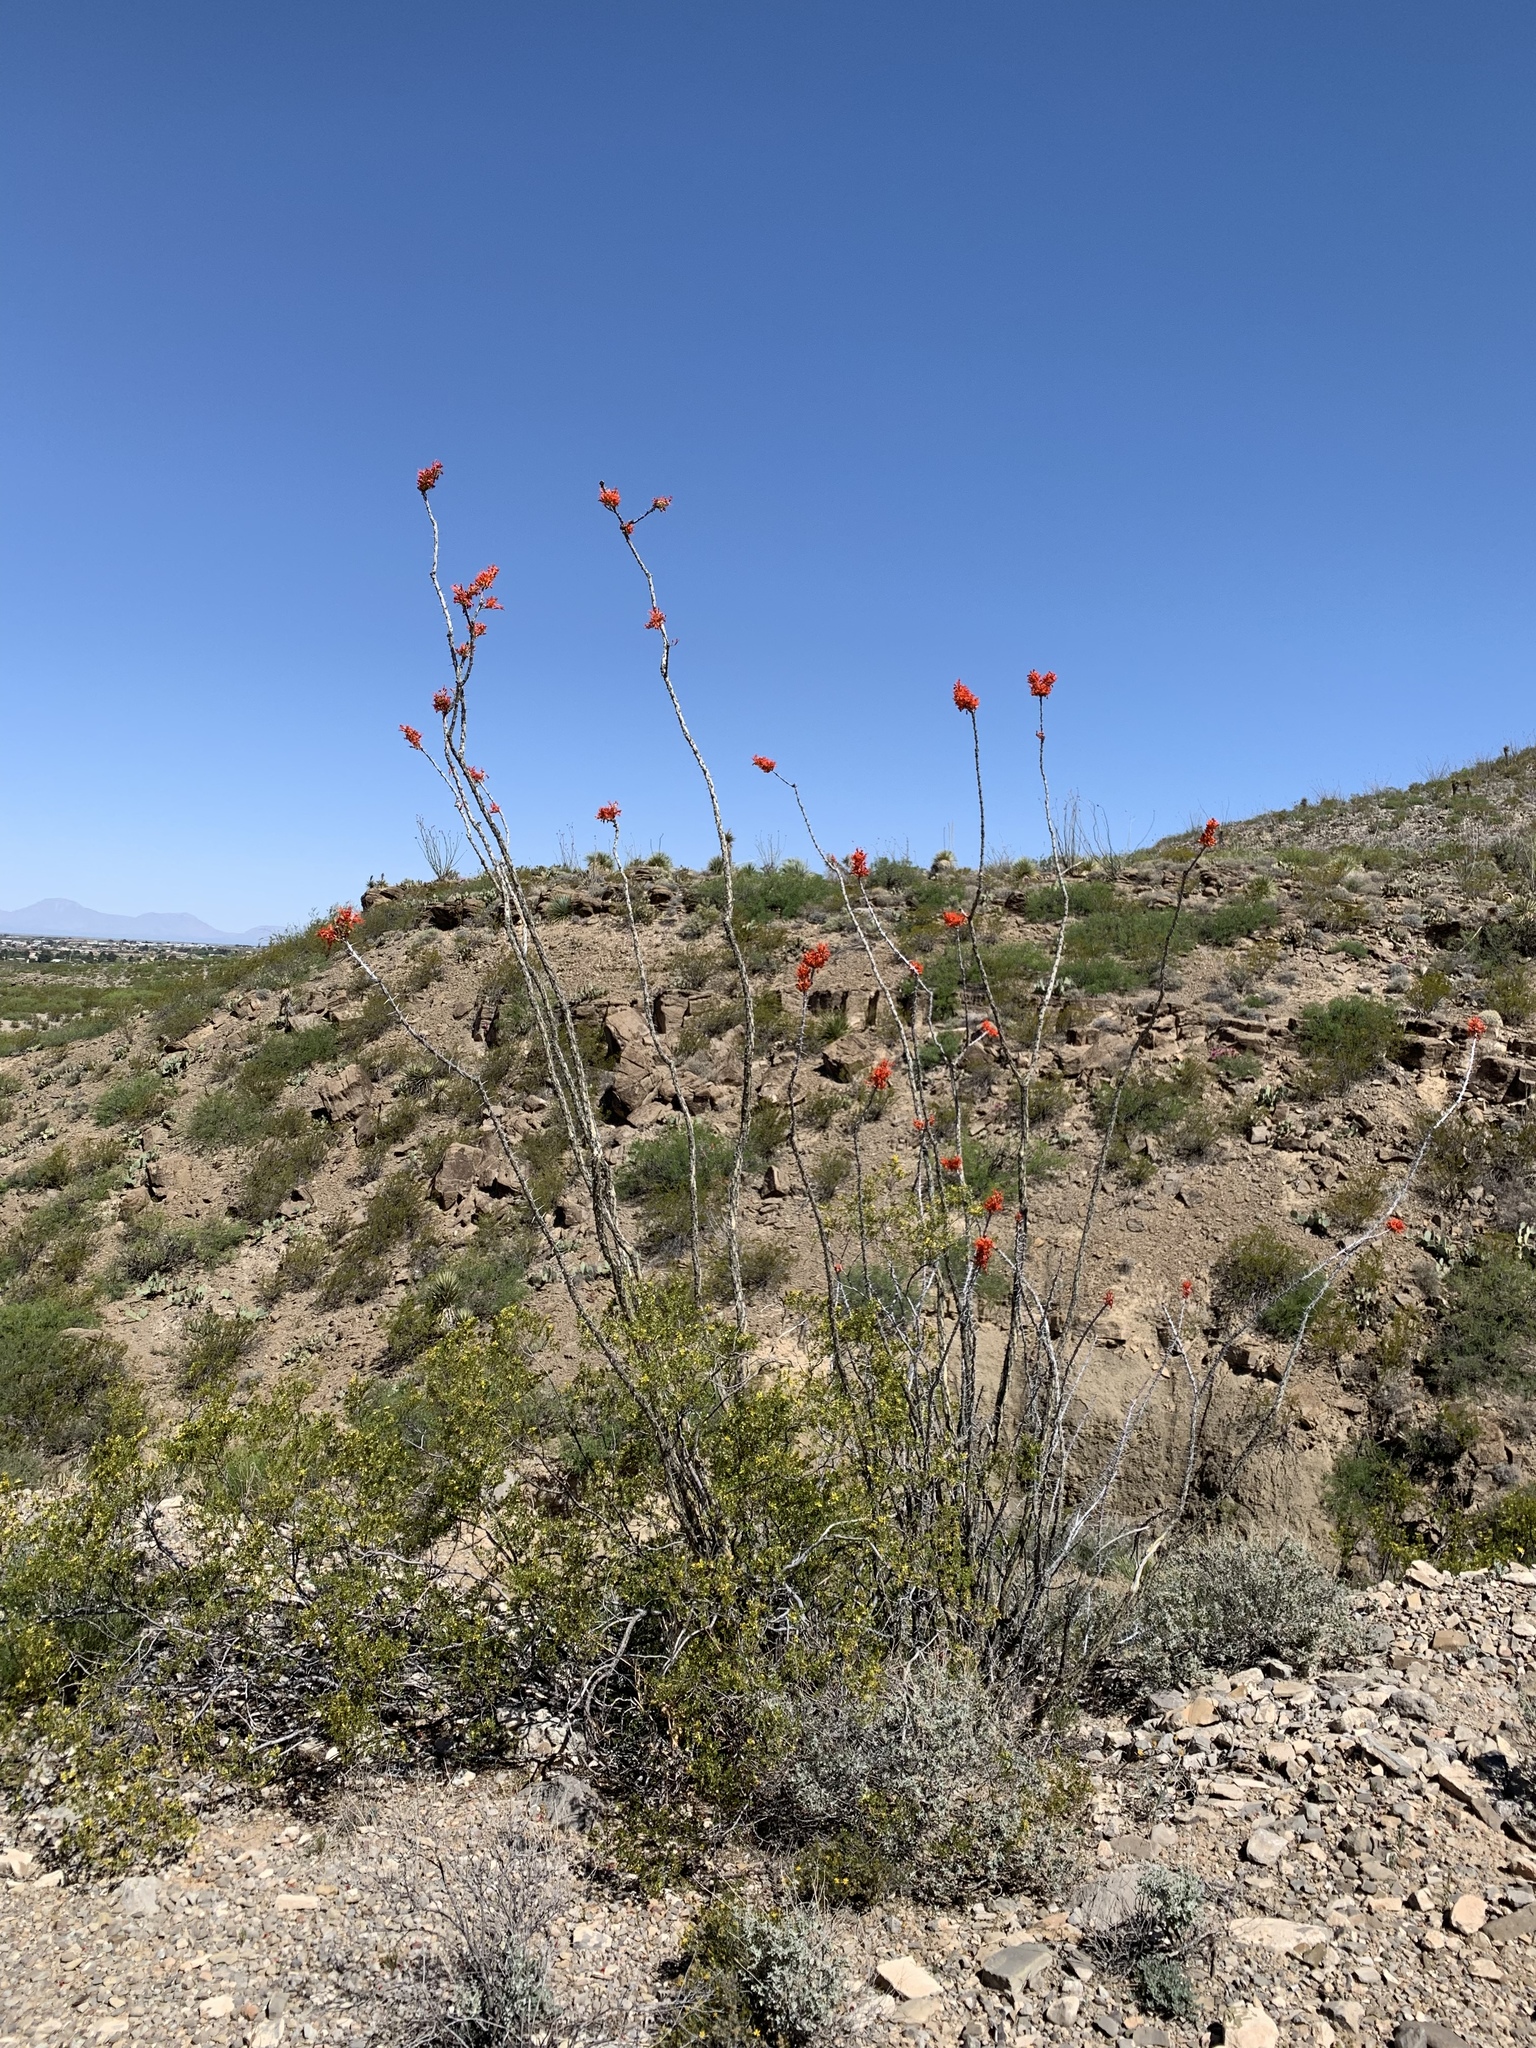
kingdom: Plantae
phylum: Tracheophyta
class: Magnoliopsida
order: Ericales
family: Fouquieriaceae
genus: Fouquieria
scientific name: Fouquieria splendens
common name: Vine-cactus
